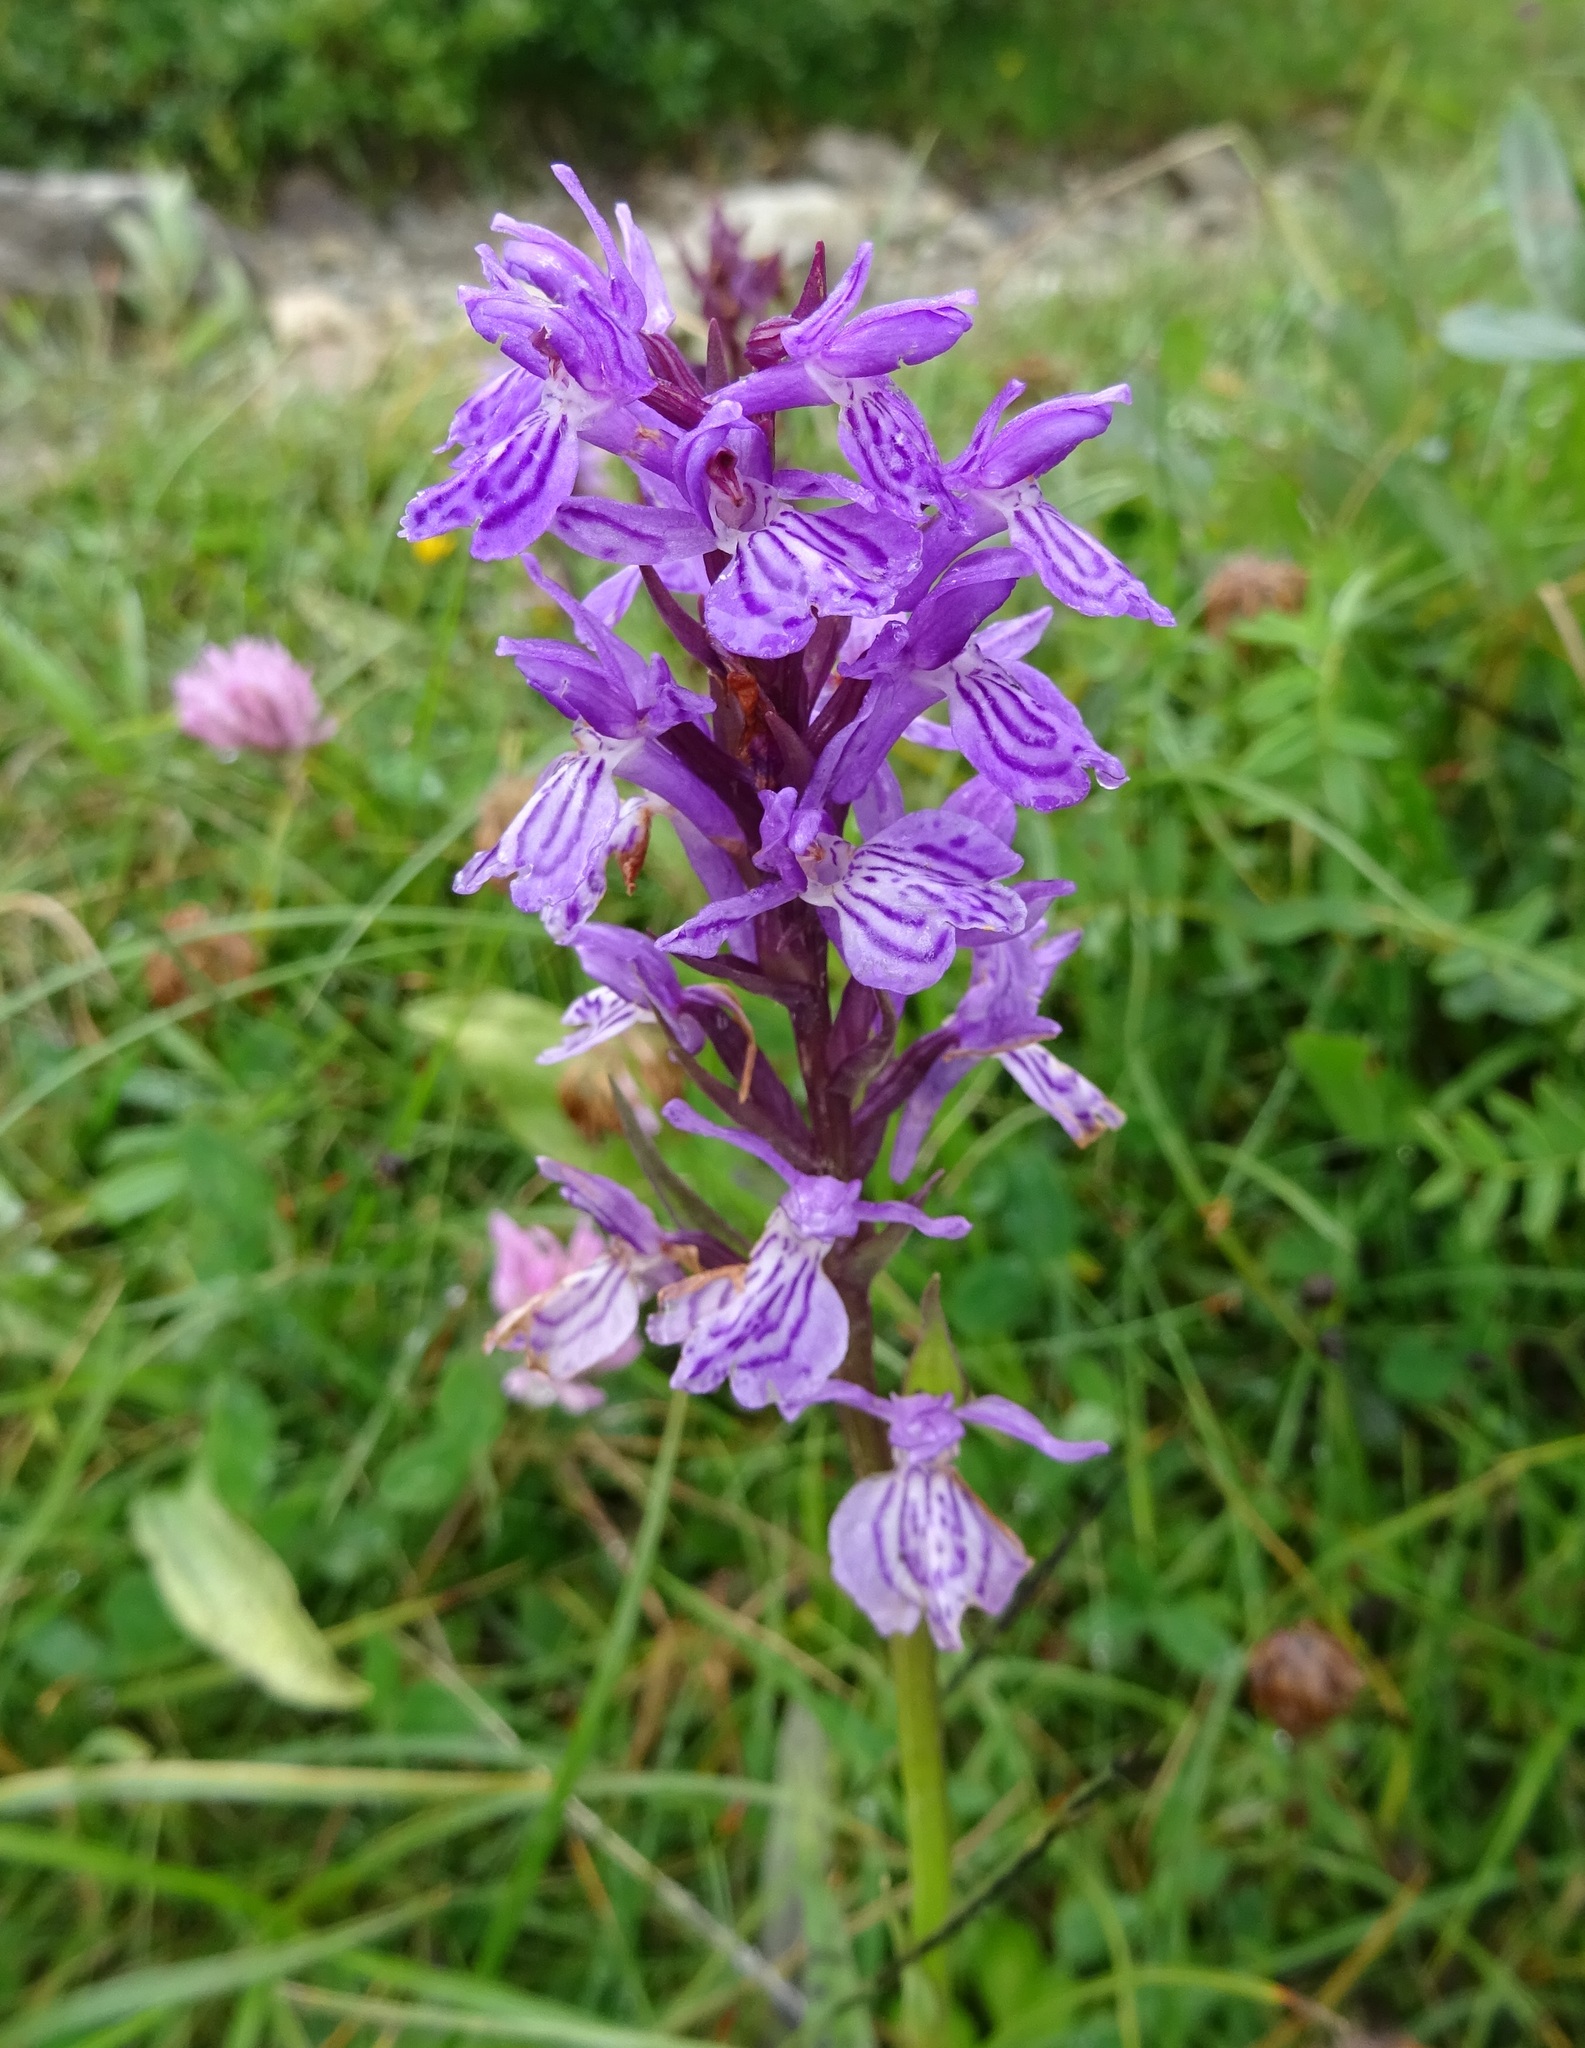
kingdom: Plantae
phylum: Tracheophyta
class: Liliopsida
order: Asparagales
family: Orchidaceae
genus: Dactylorhiza
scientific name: Dactylorhiza maculata
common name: Heath spotted-orchid
